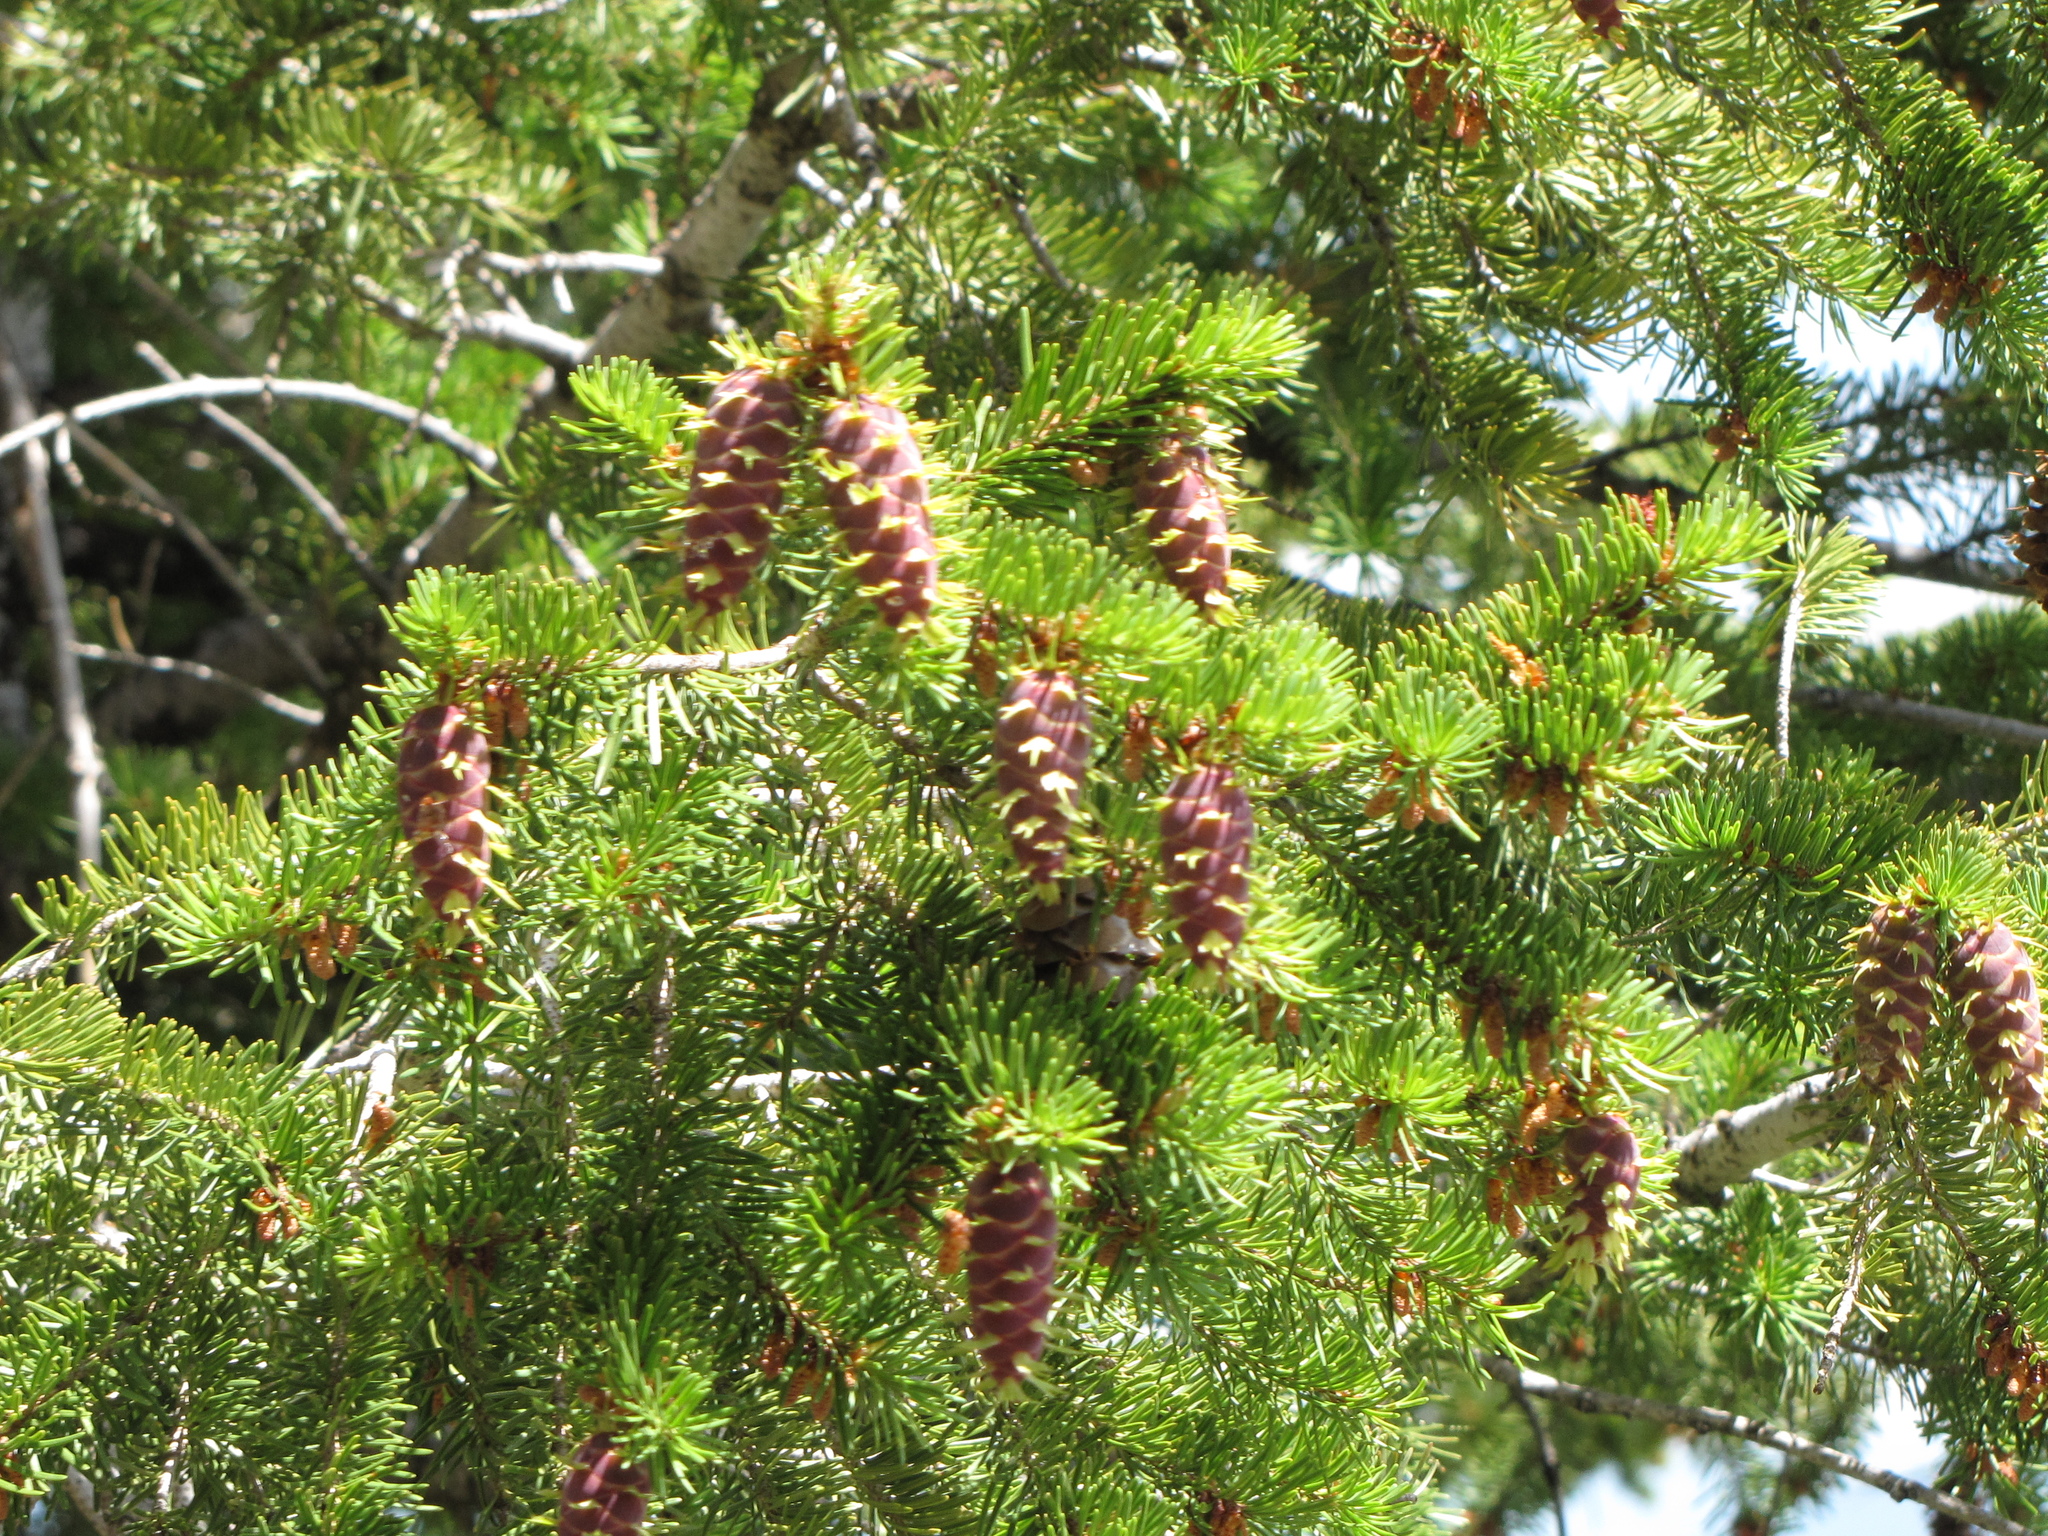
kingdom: Plantae
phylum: Tracheophyta
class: Pinopsida
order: Pinales
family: Pinaceae
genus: Pseudotsuga
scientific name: Pseudotsuga menziesii
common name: Douglas fir
